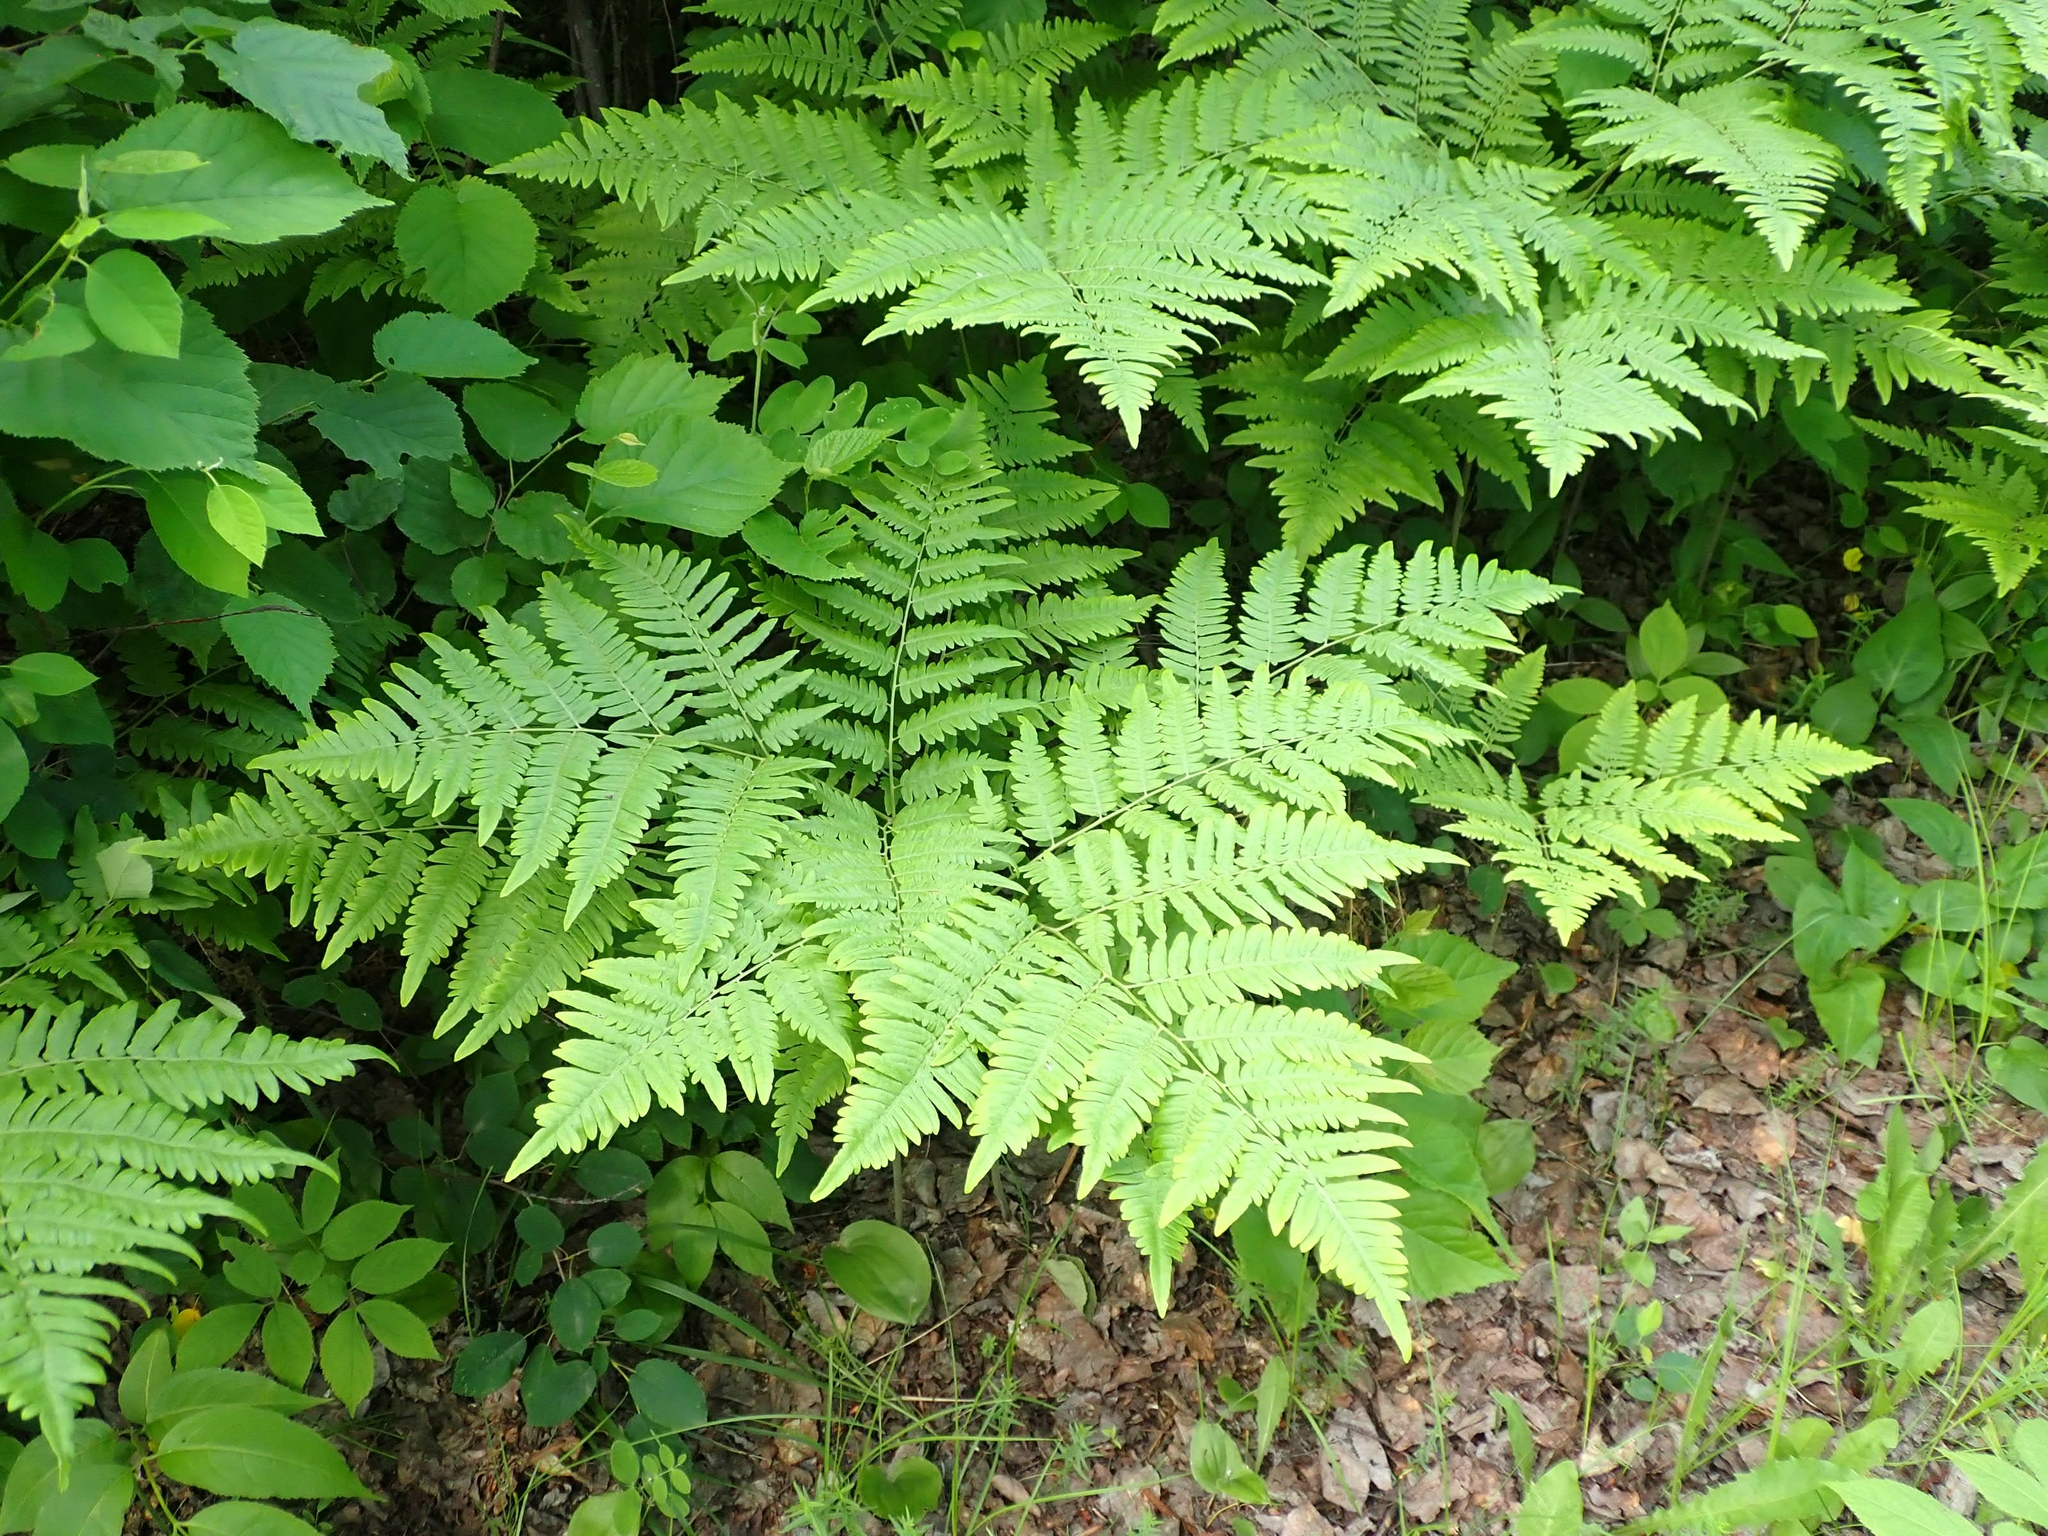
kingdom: Plantae
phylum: Tracheophyta
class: Polypodiopsida
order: Polypodiales
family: Dennstaedtiaceae
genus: Pteridium
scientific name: Pteridium aquilinum
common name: Bracken
